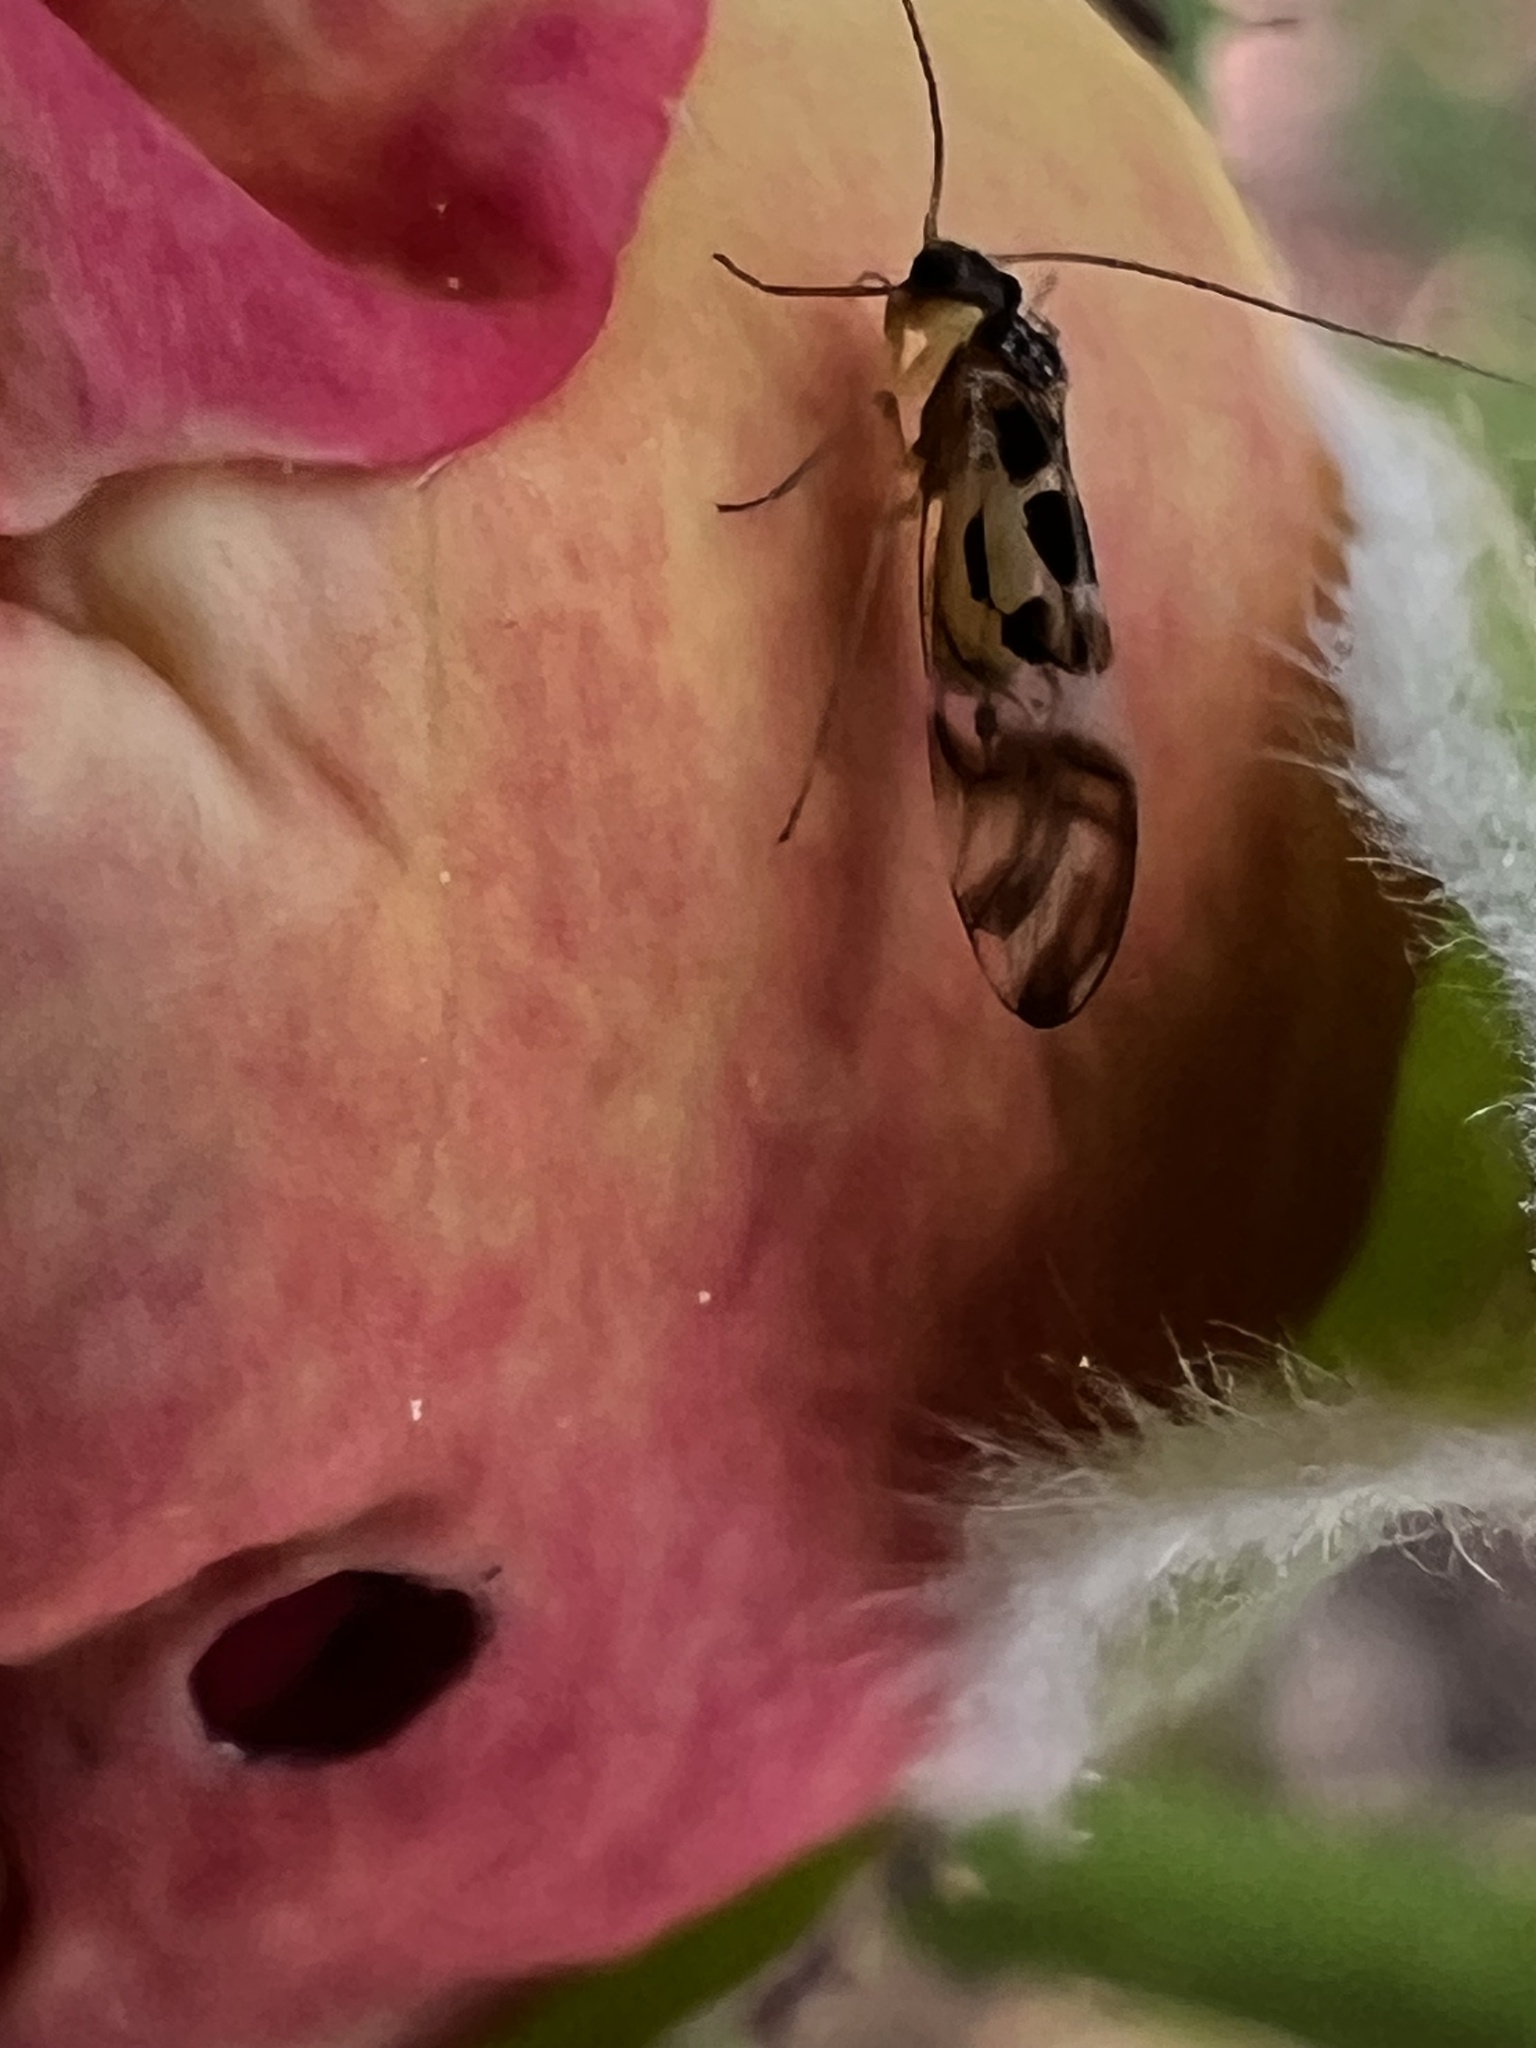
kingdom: Animalia
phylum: Arthropoda
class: Insecta
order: Psocodea
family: Stenopsocidae
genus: Graphopsocus
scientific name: Graphopsocus cruciatus
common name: Lizard bark louse
